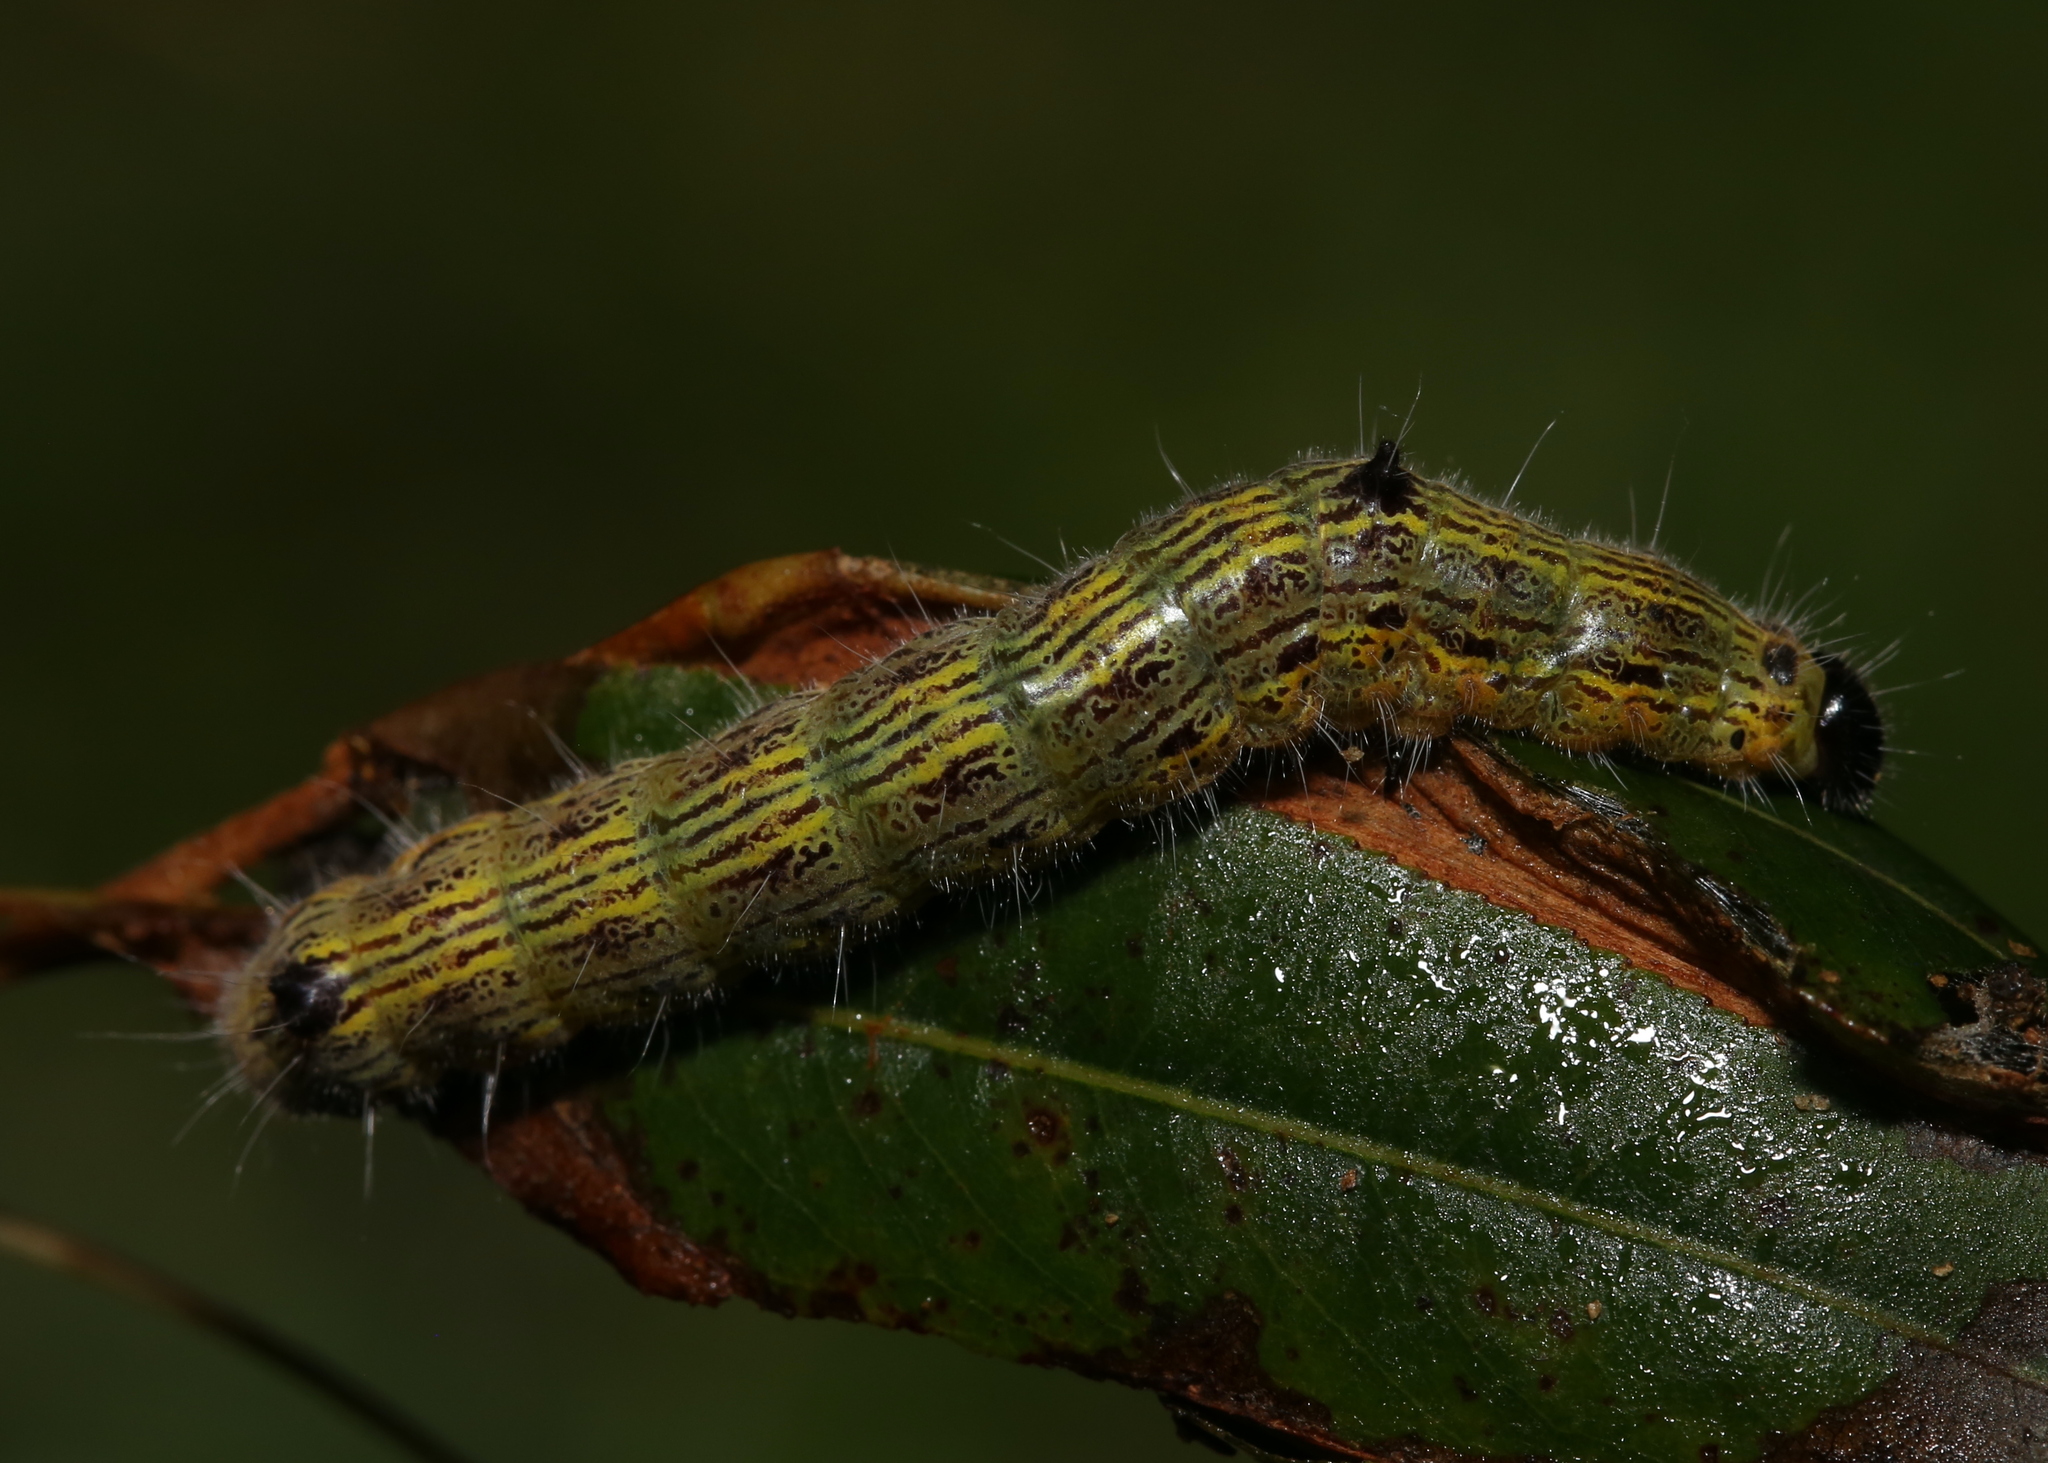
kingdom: Animalia
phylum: Arthropoda
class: Insecta
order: Lepidoptera
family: Notodontidae
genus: Clostera
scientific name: Clostera inclusa
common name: Angle-lined prominent
